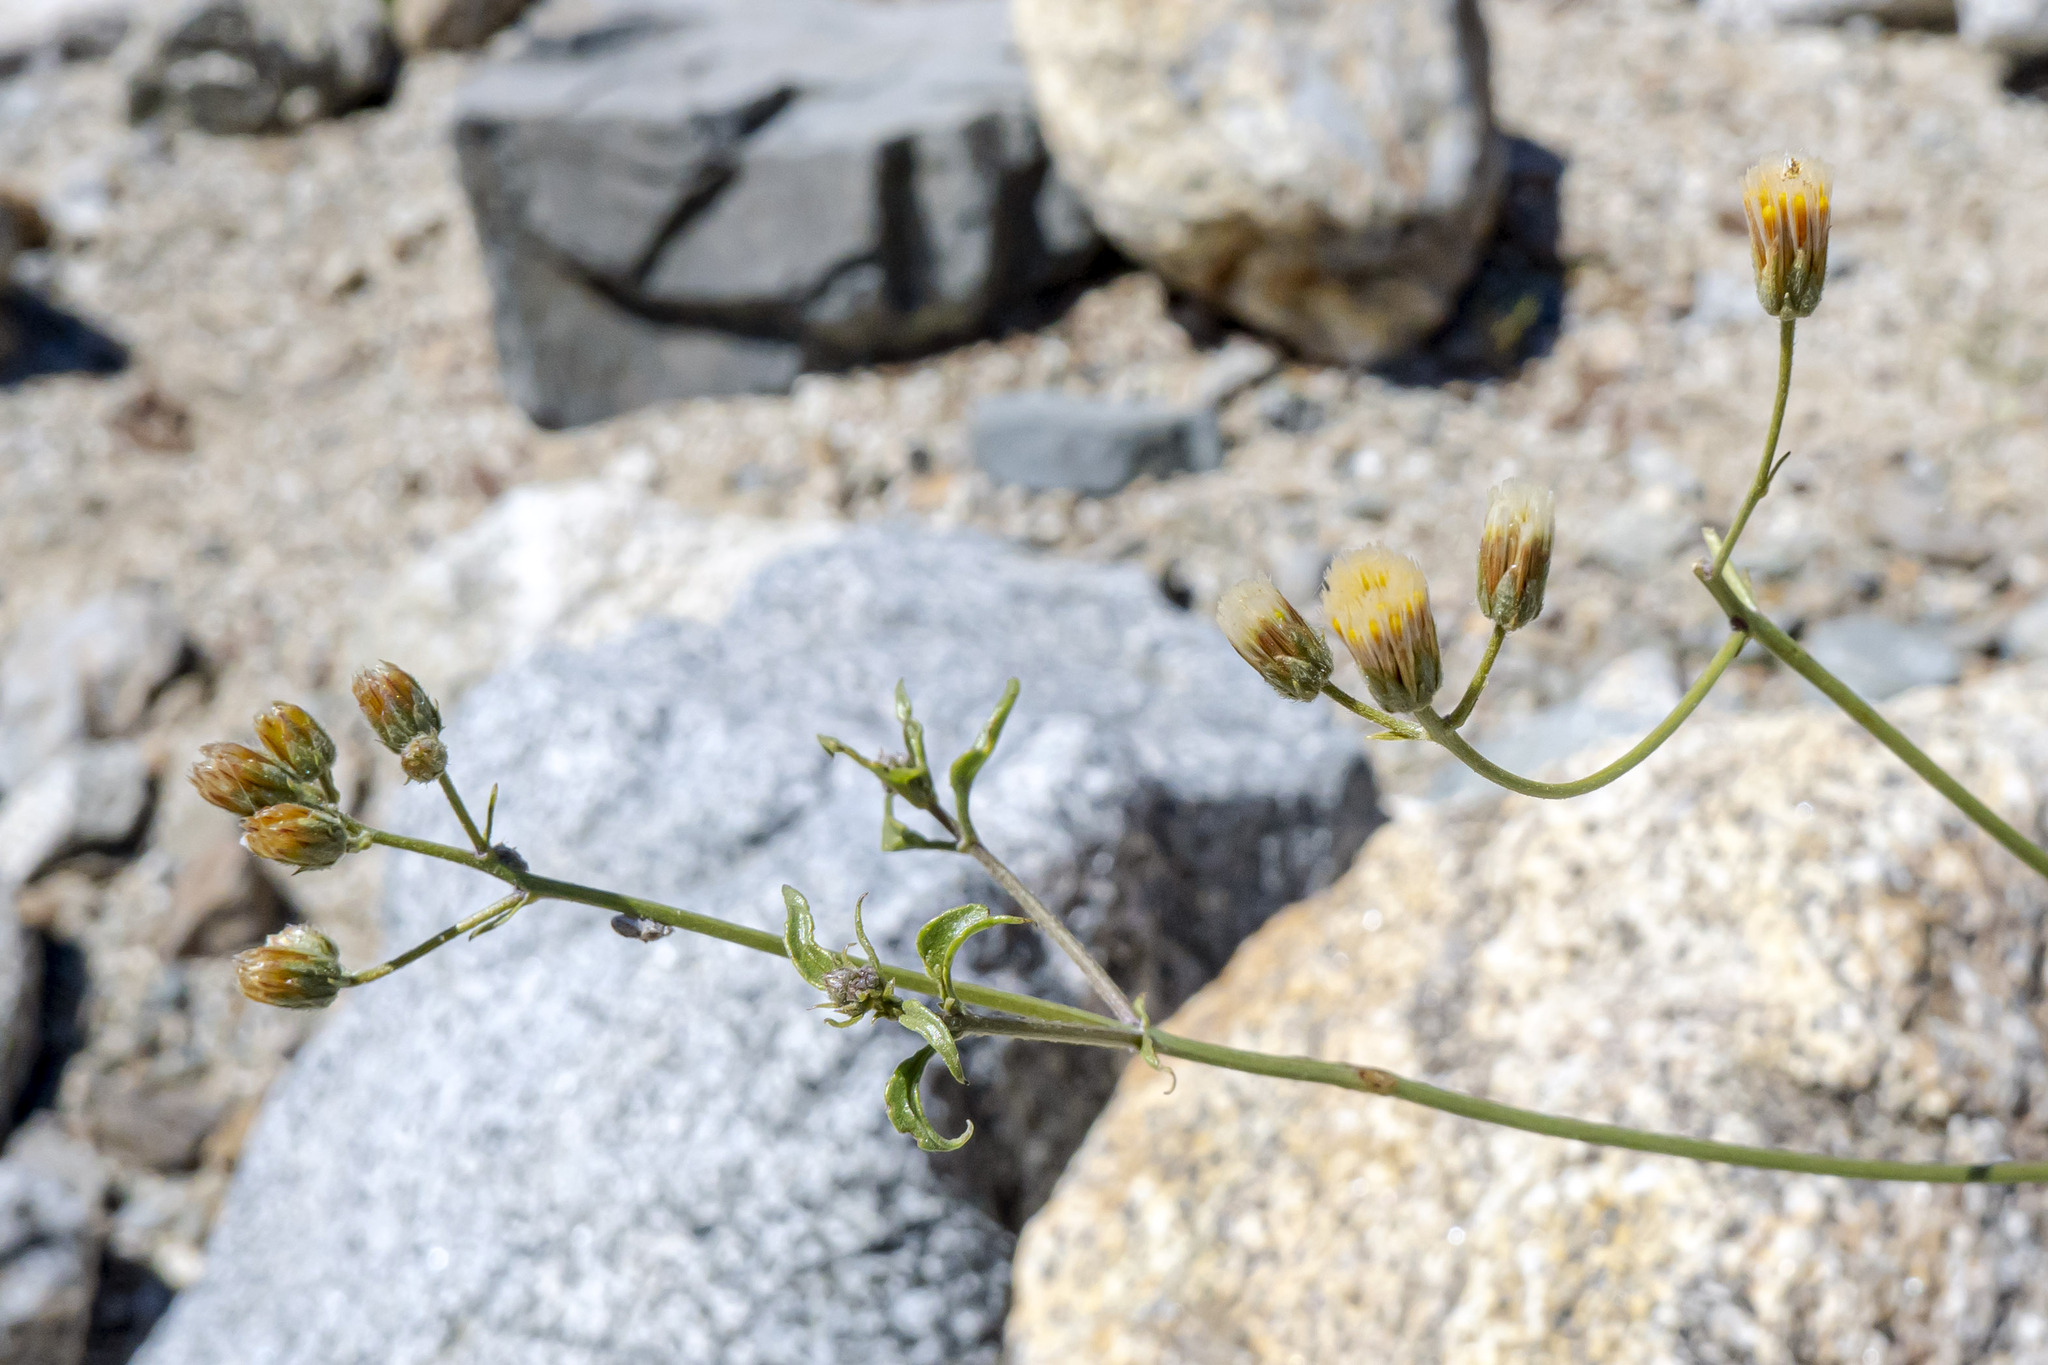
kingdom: Plantae
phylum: Tracheophyta
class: Magnoliopsida
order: Asterales
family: Asteraceae
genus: Bebbia
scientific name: Bebbia atriplicifolia
